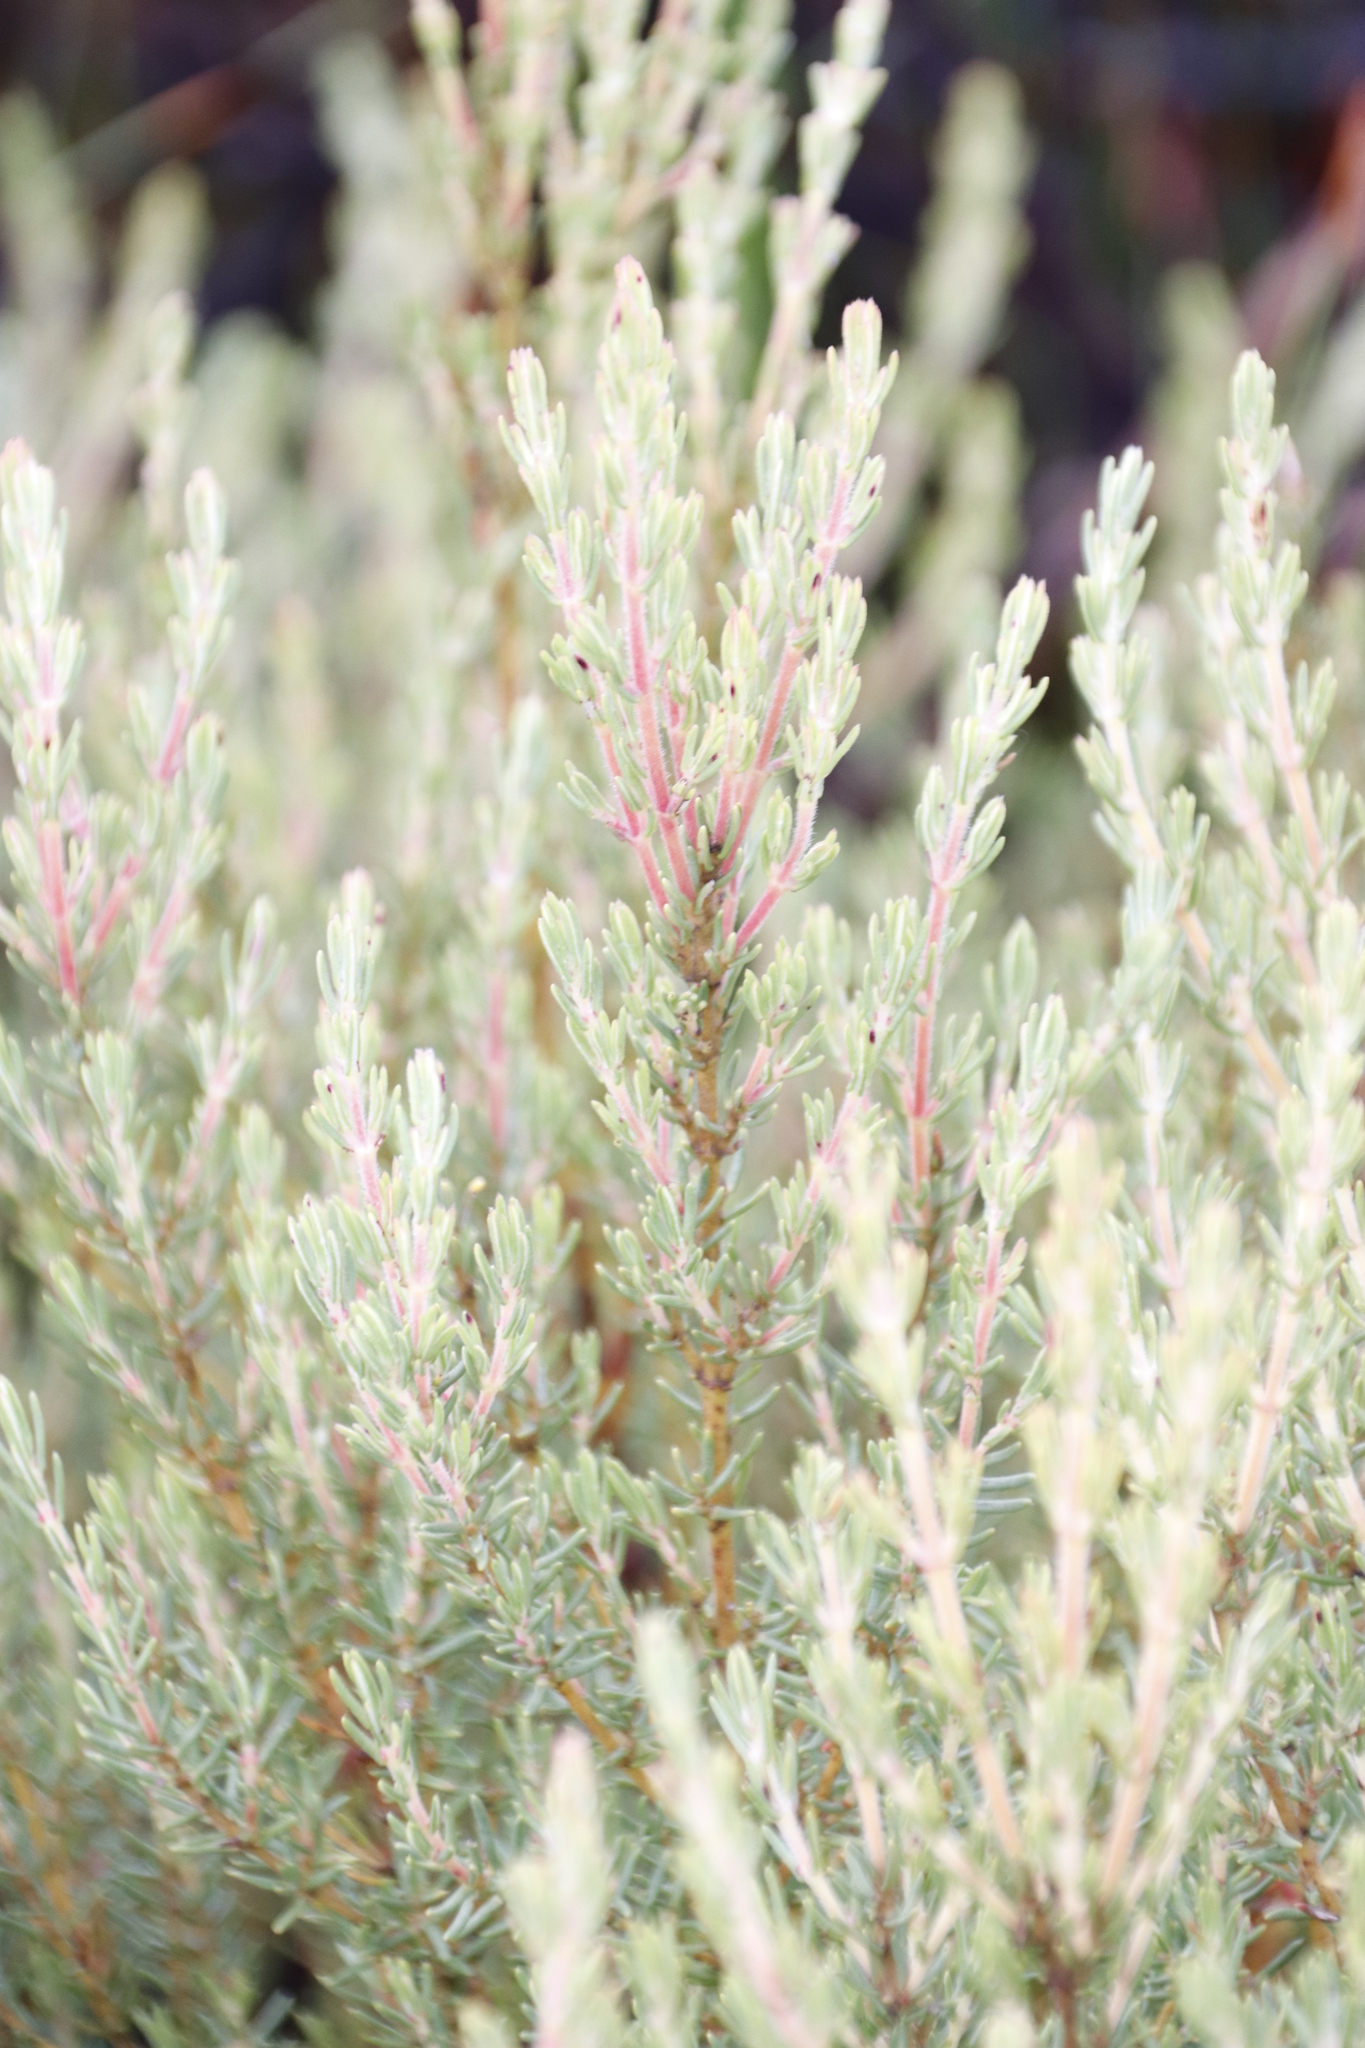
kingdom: Plantae
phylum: Tracheophyta
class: Magnoliopsida
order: Cornales
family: Grubbiaceae
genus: Grubbia
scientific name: Grubbia rosmarinifolia
